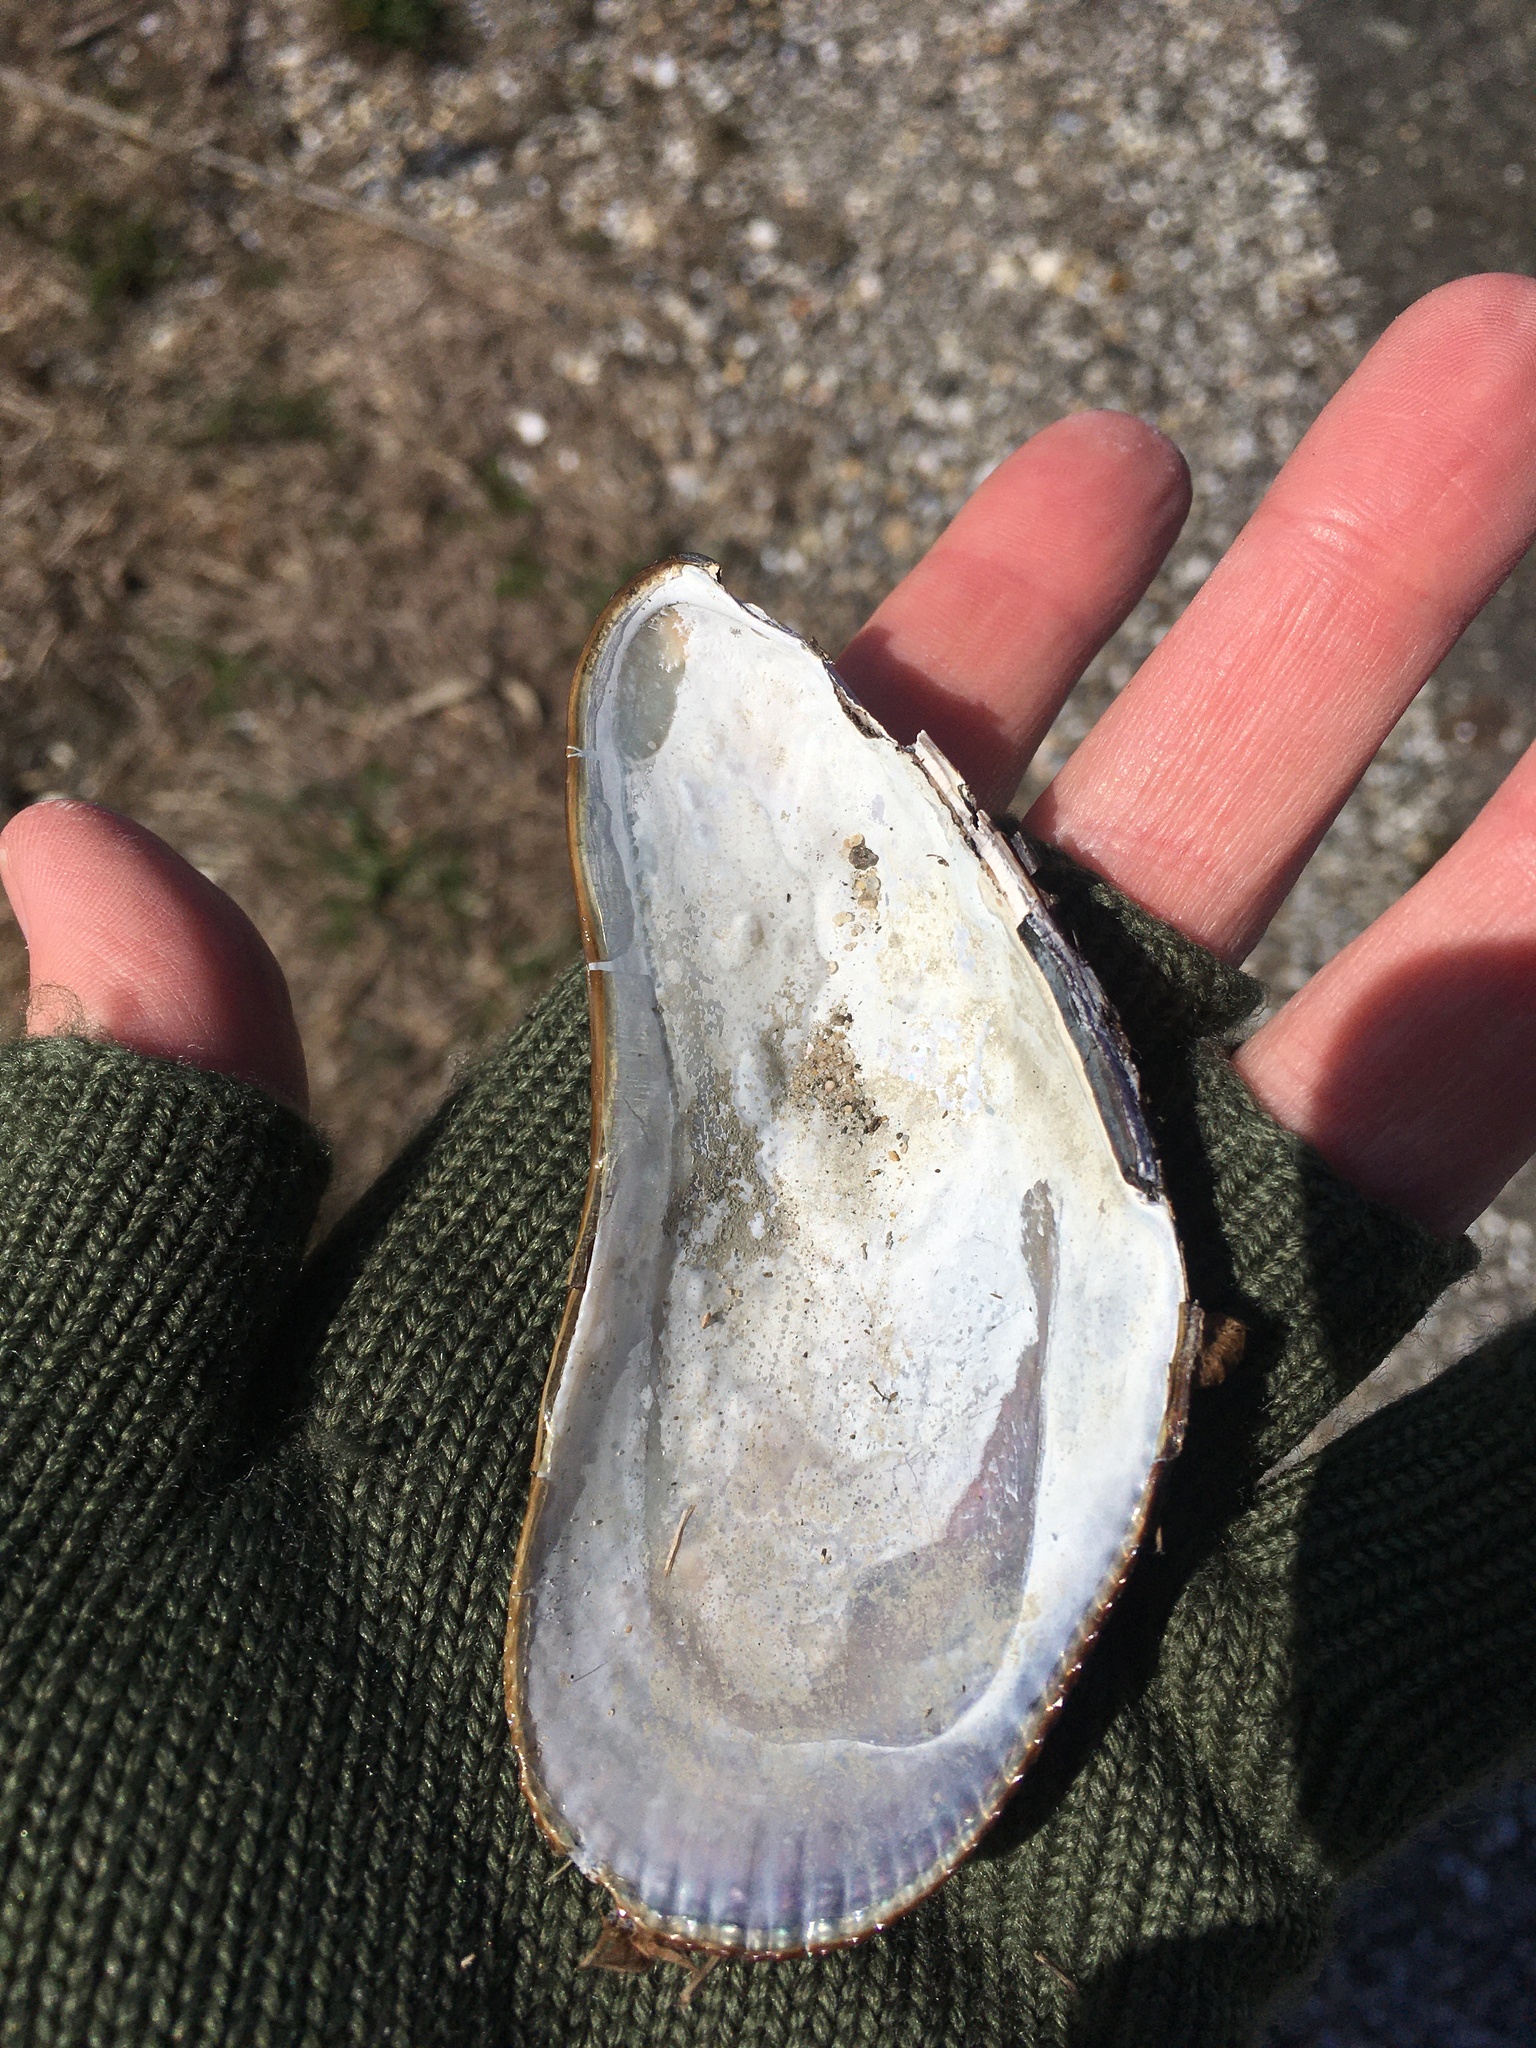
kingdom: Animalia
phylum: Mollusca
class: Bivalvia
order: Mytilida
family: Mytilidae
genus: Geukensia
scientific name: Geukensia demissa
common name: Ribbed mussel
